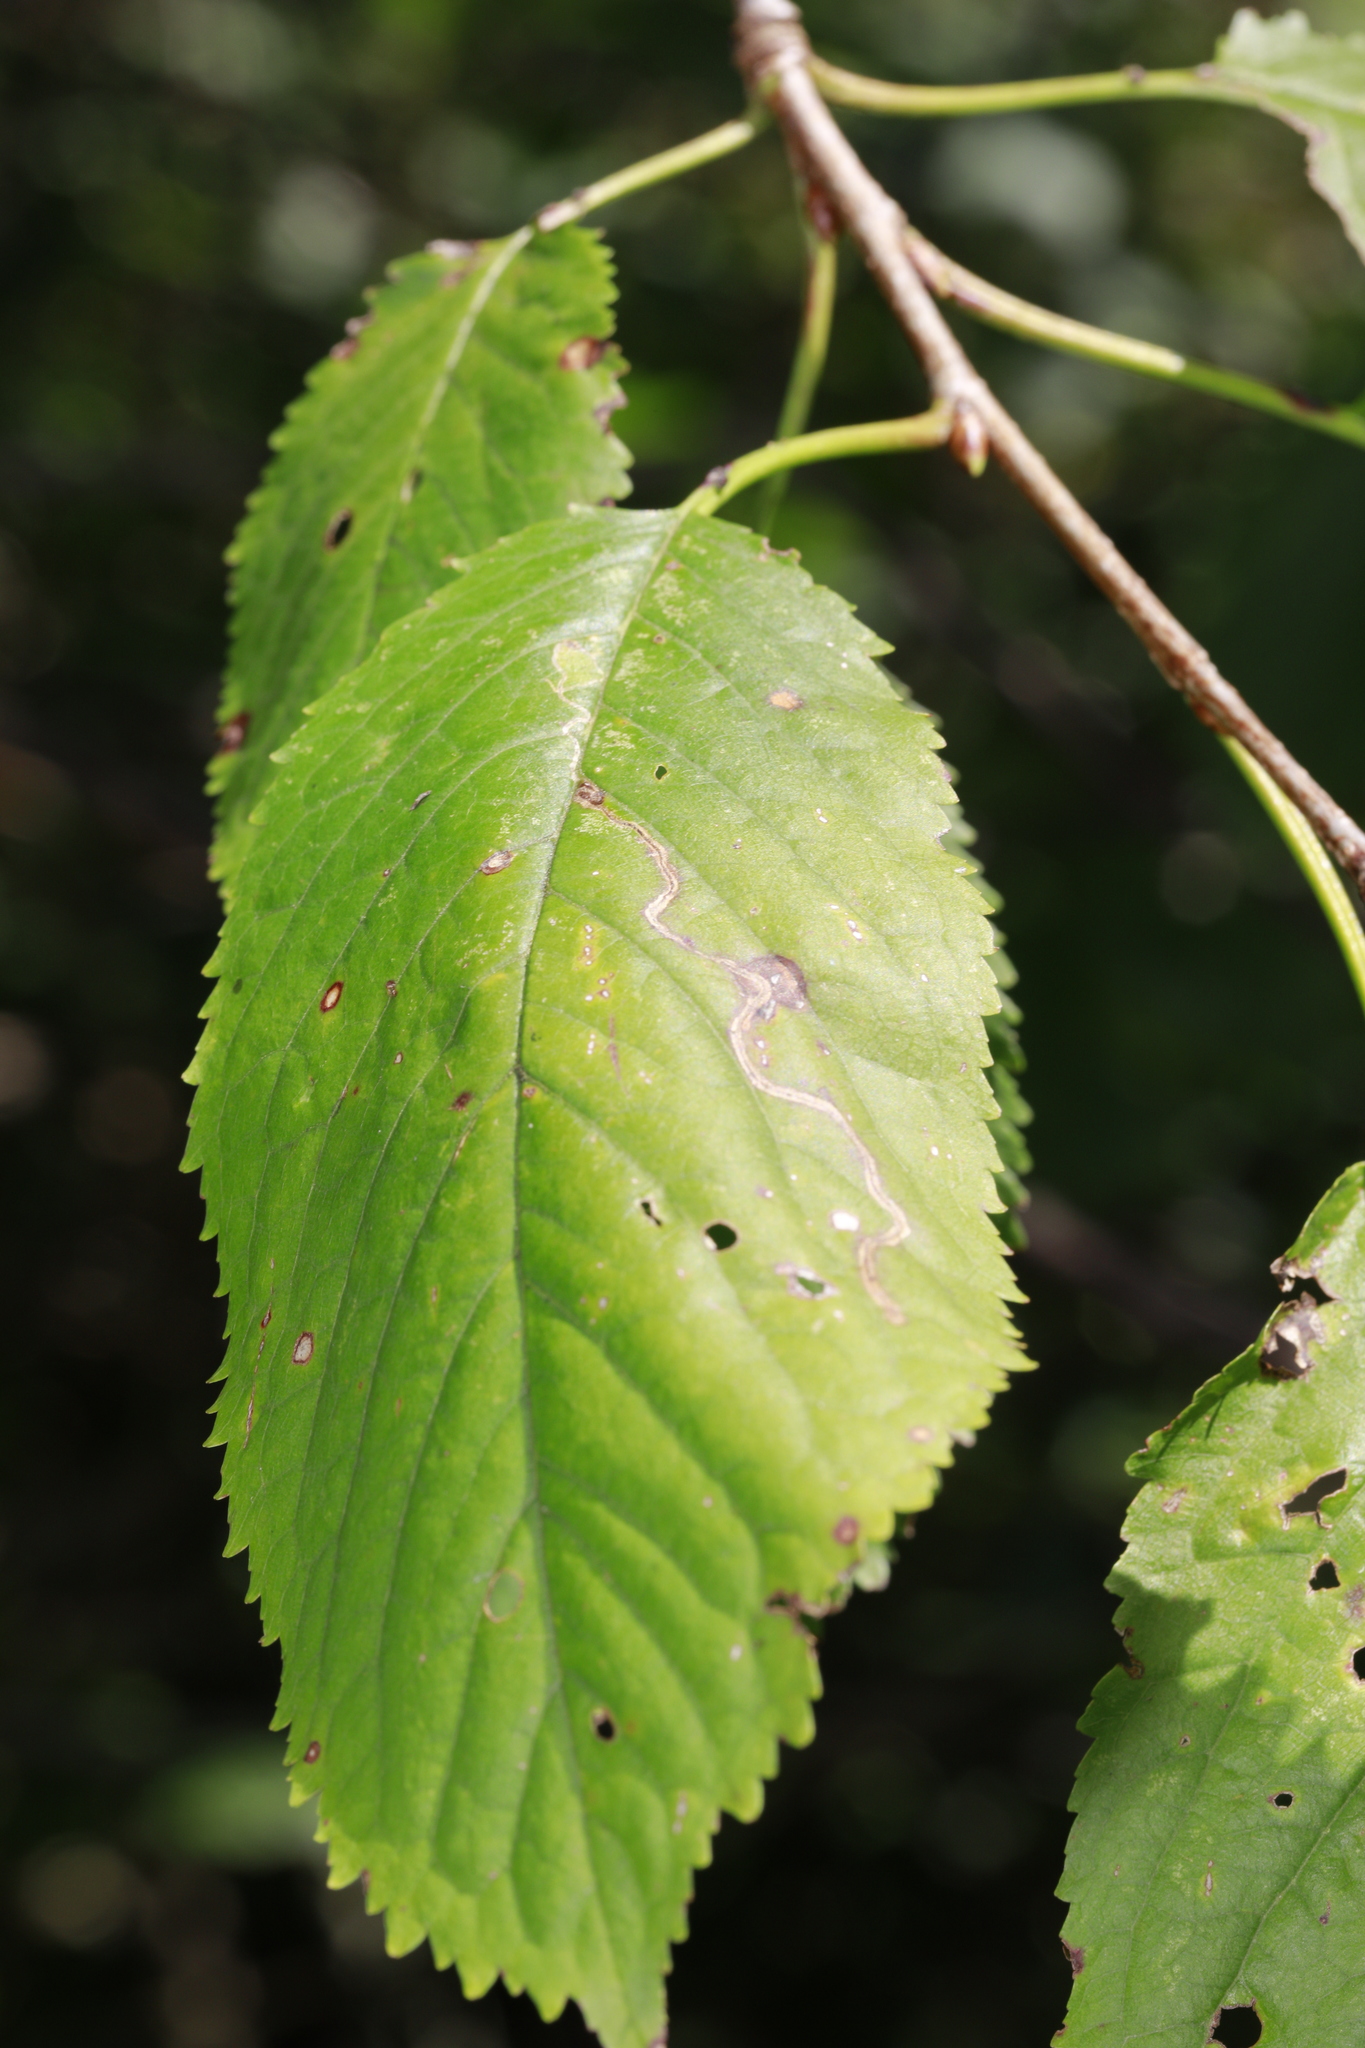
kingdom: Animalia
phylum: Arthropoda
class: Insecta
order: Lepidoptera
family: Lyonetiidae
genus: Lyonetia
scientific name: Lyonetia clerkella
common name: Apple leaf miner
